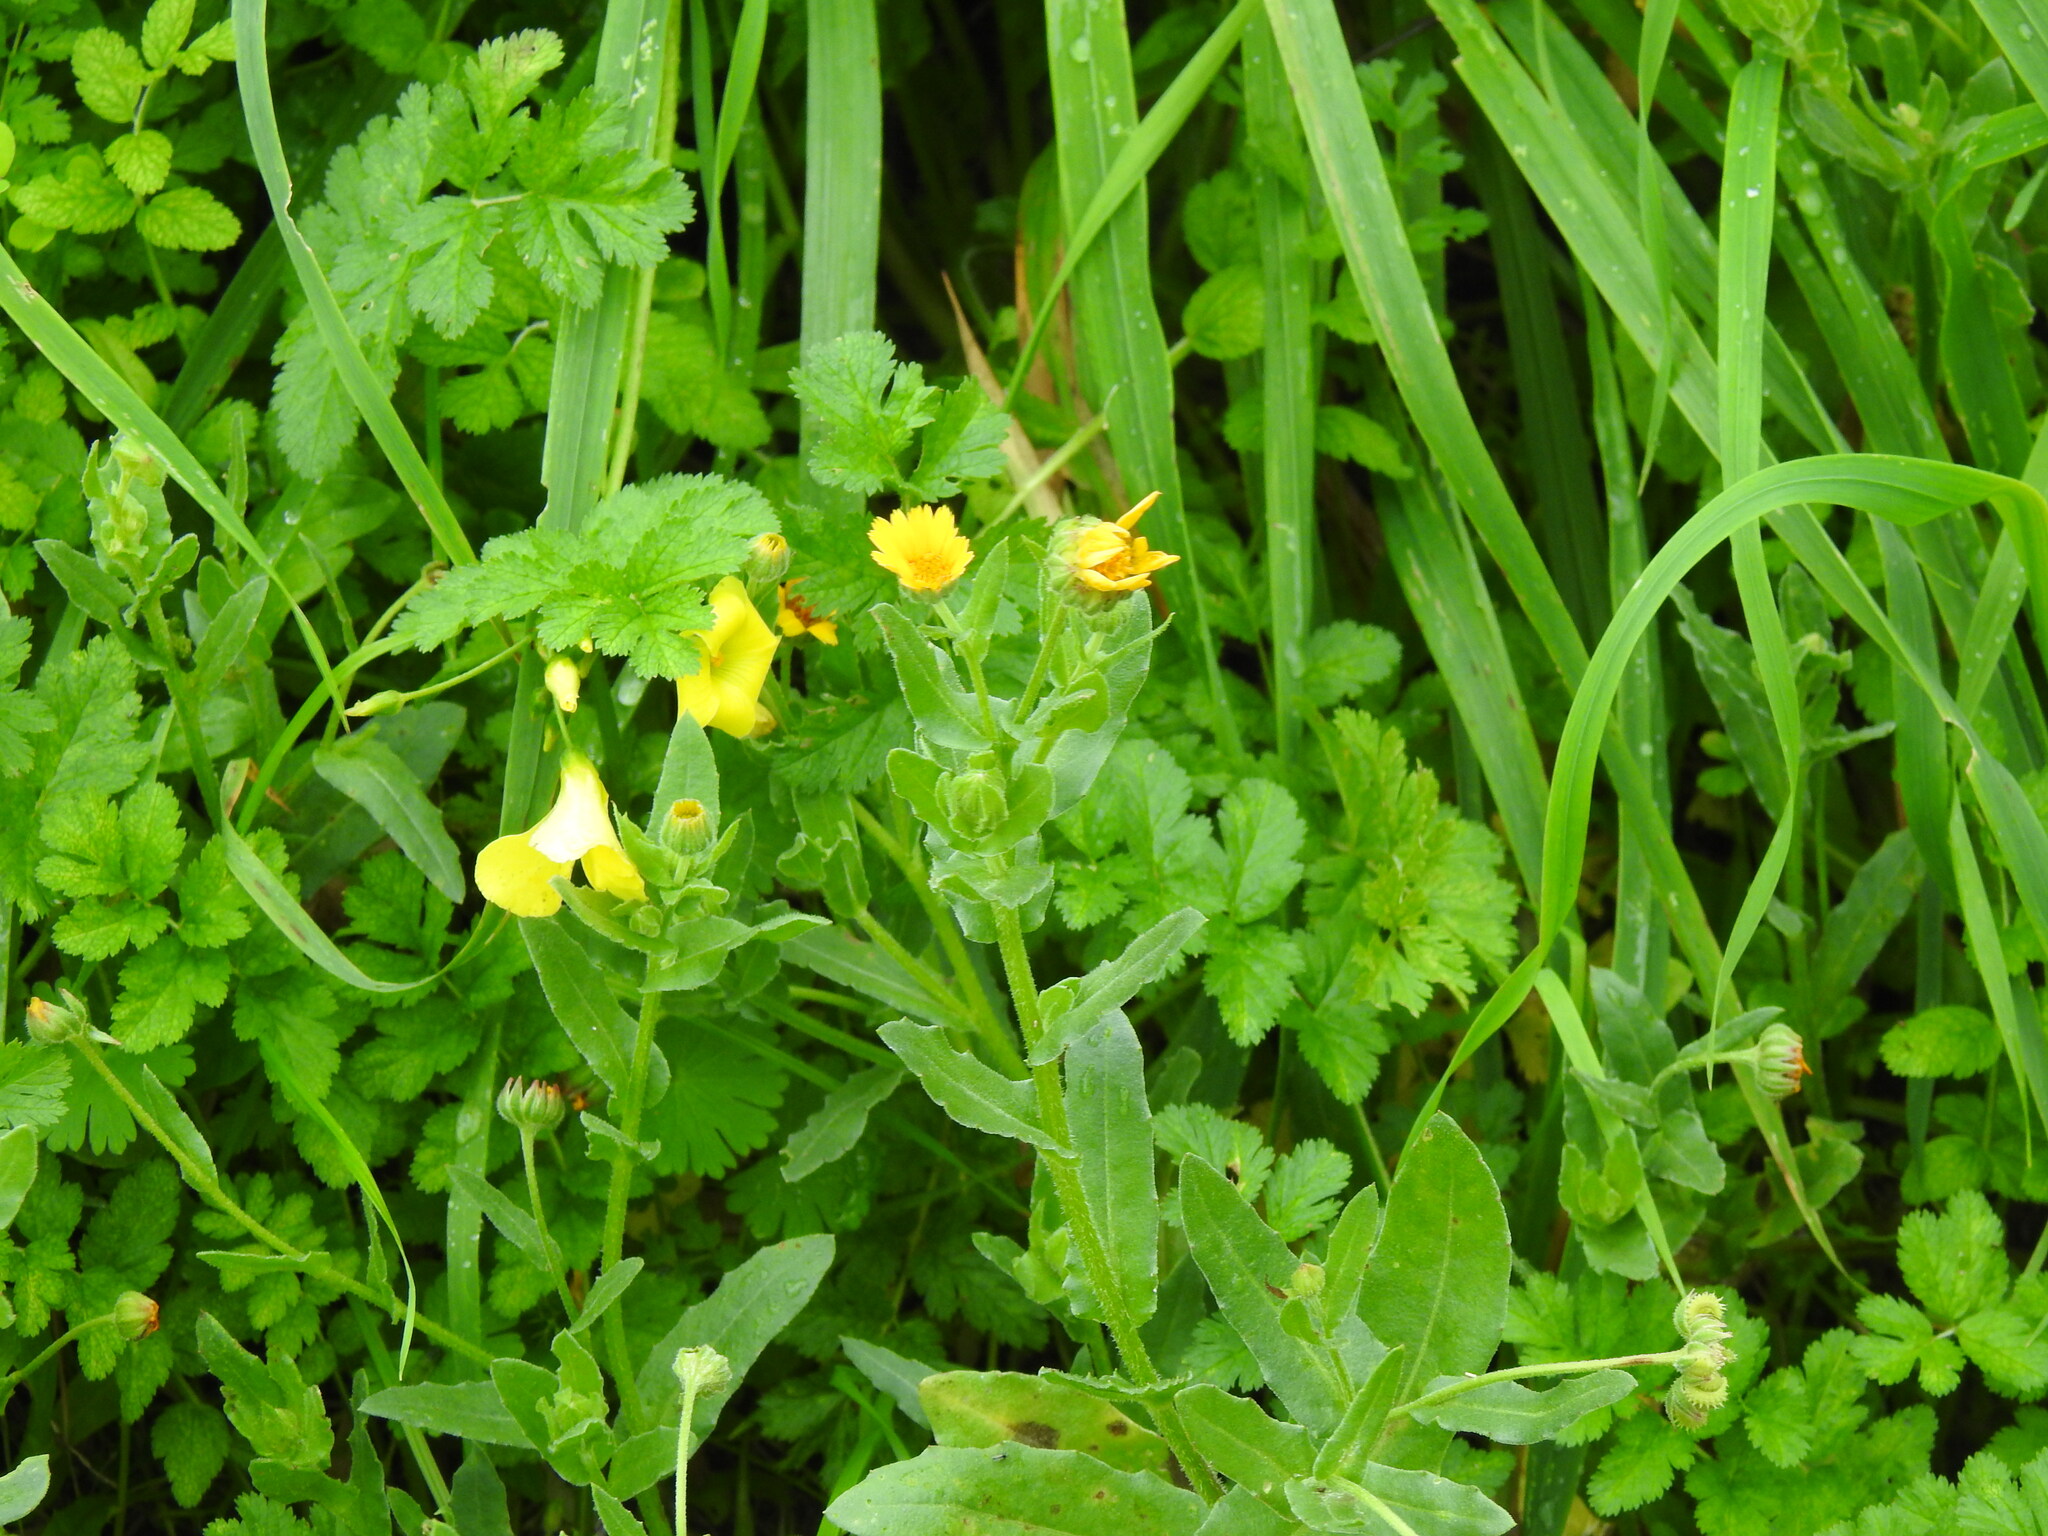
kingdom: Plantae
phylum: Tracheophyta
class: Magnoliopsida
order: Asterales
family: Asteraceae
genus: Calendula
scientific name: Calendula arvensis
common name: Field marigold
